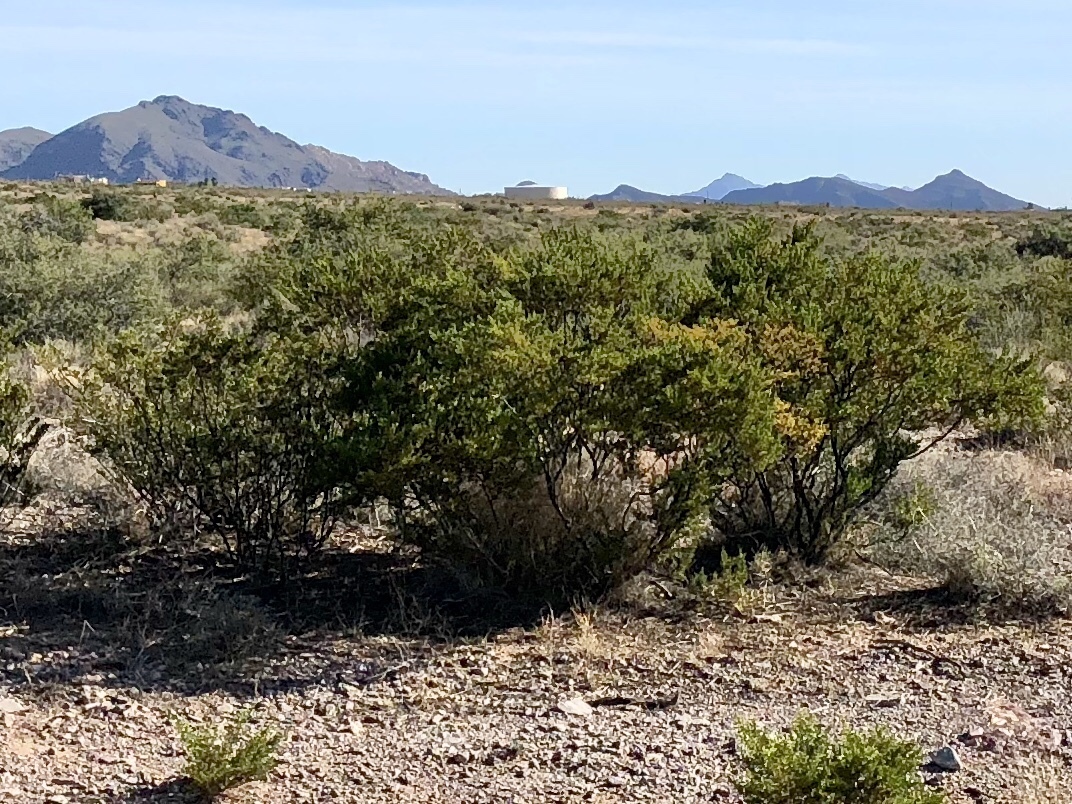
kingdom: Plantae
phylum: Tracheophyta
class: Magnoliopsida
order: Zygophyllales
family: Zygophyllaceae
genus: Larrea
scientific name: Larrea tridentata
